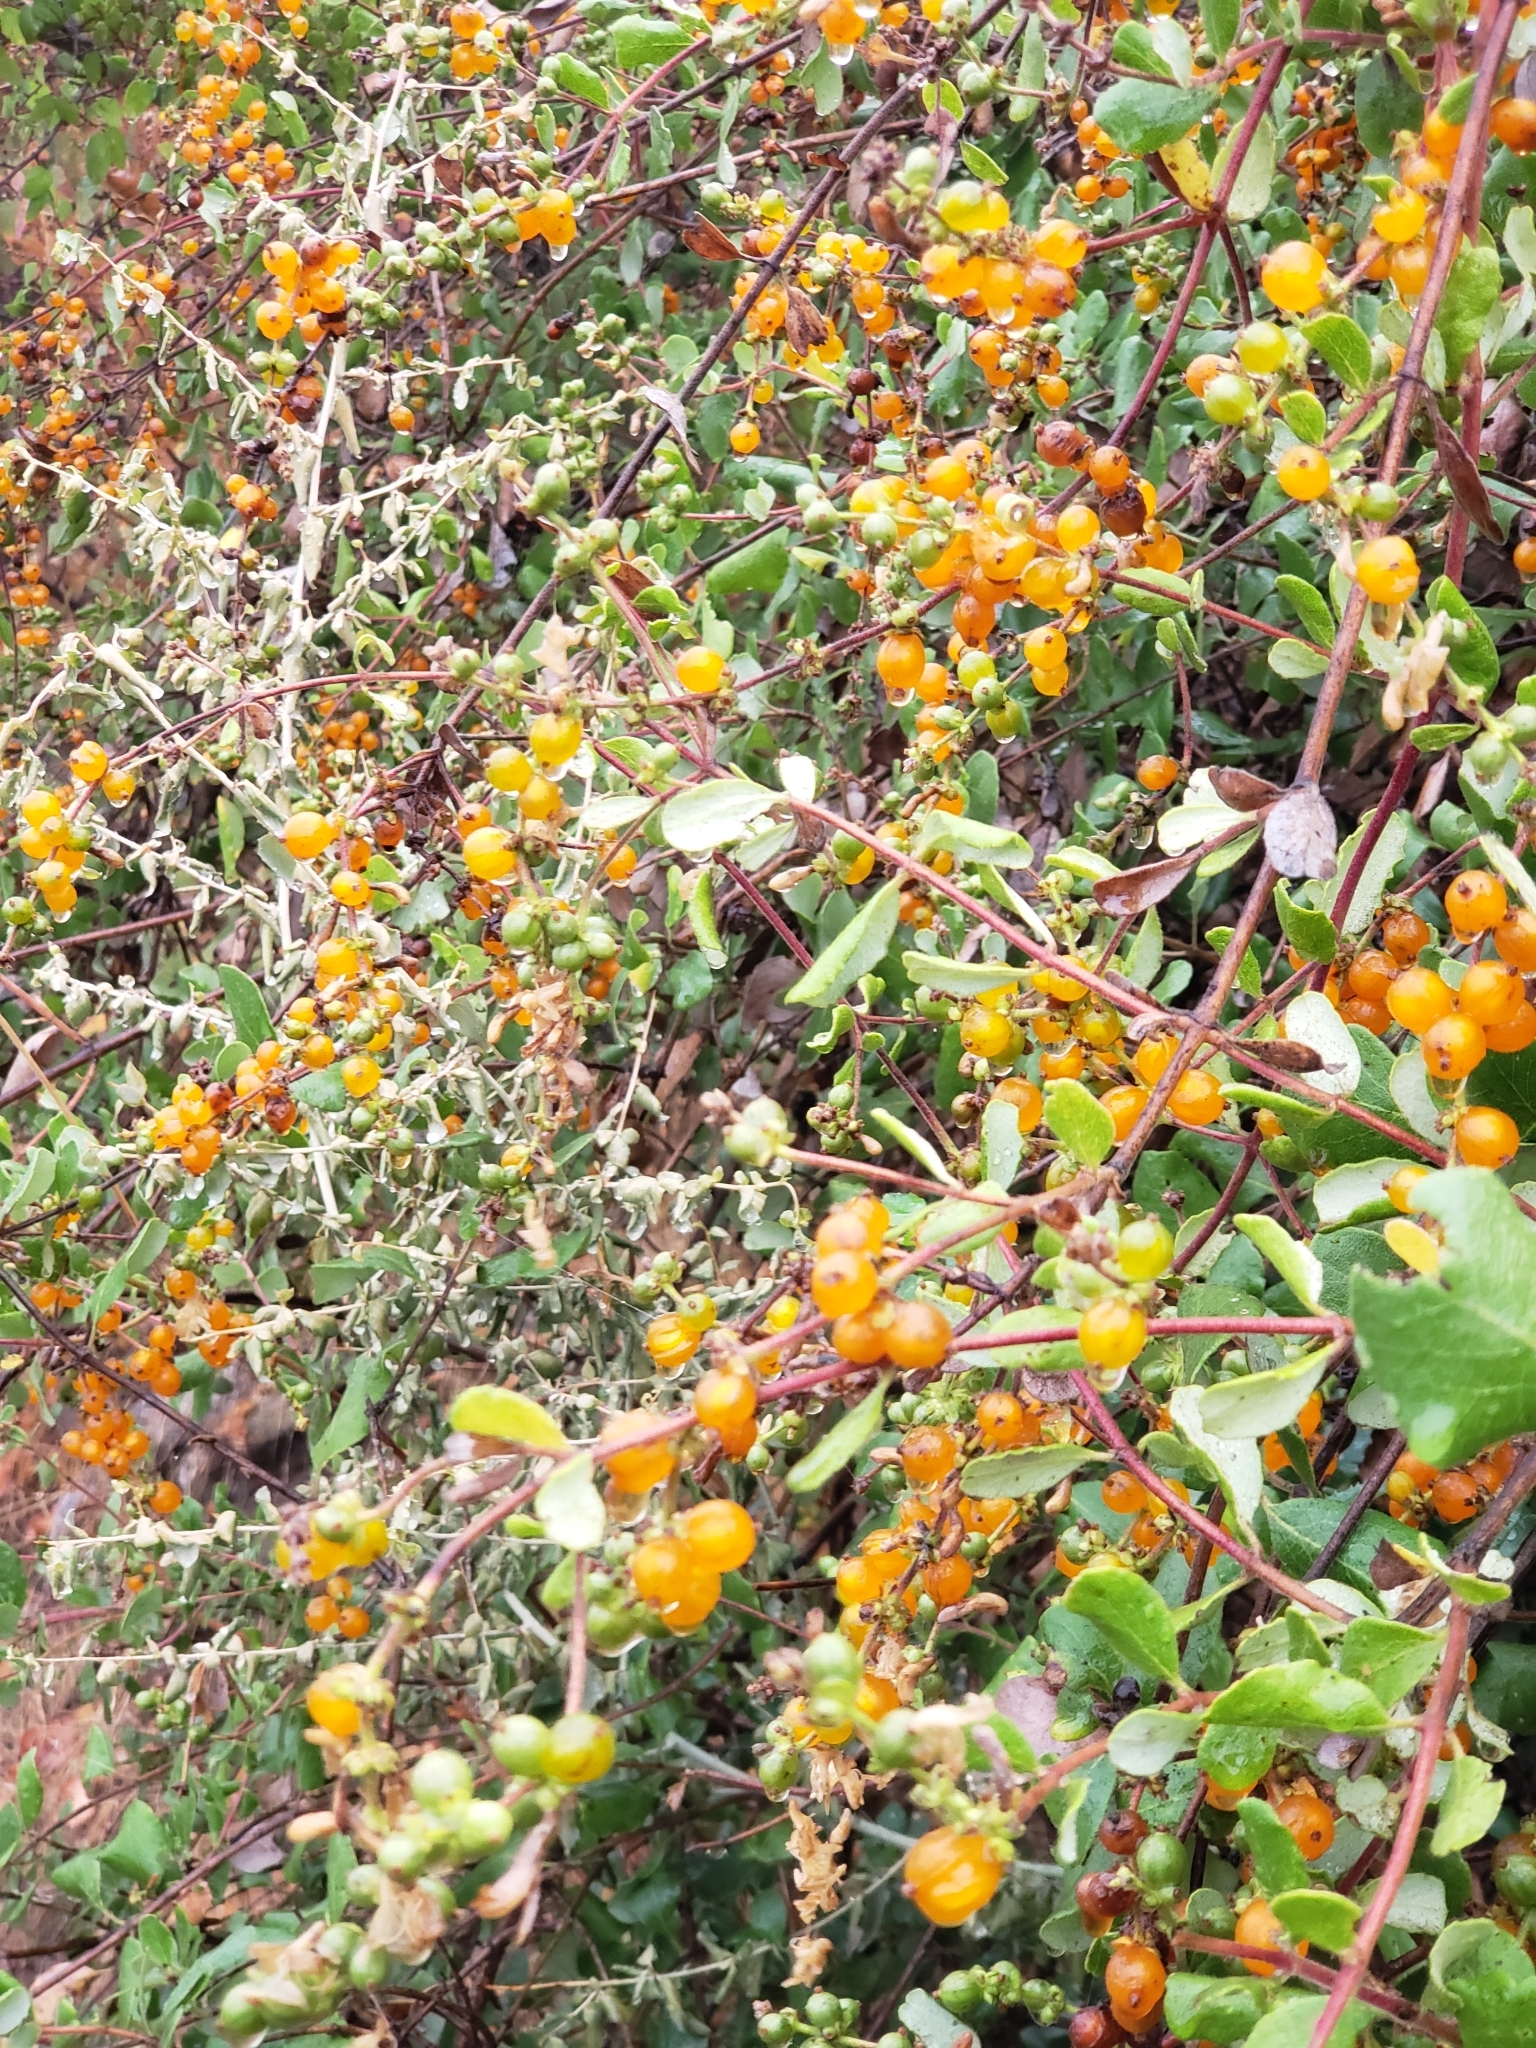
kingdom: Plantae
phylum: Tracheophyta
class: Magnoliopsida
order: Dipsacales
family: Caprifoliaceae
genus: Lonicera
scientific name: Lonicera subspicata
